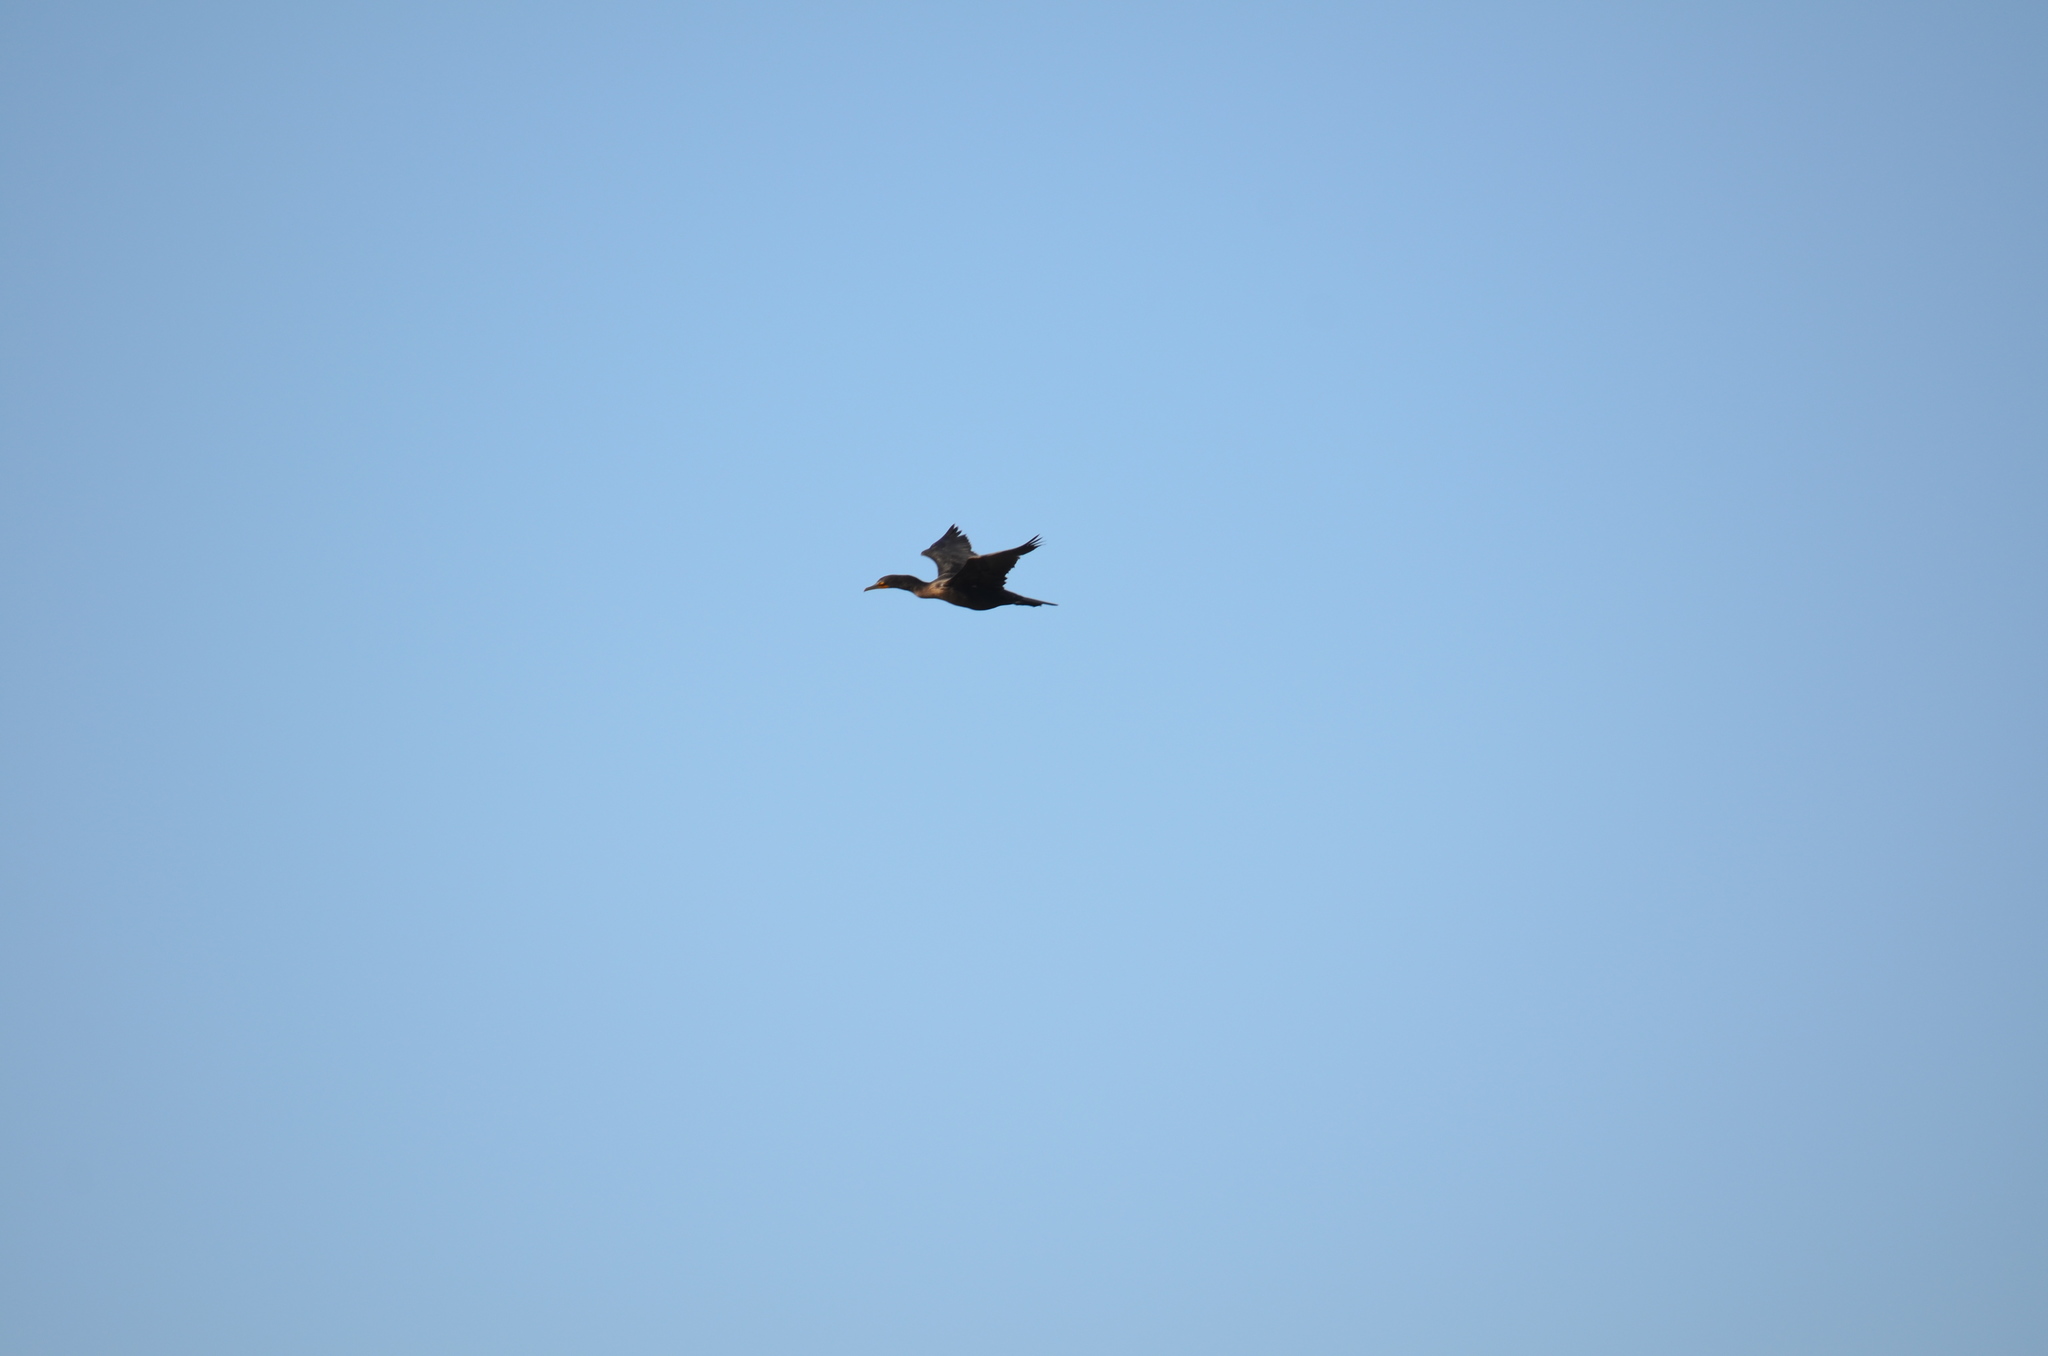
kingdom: Animalia
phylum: Chordata
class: Aves
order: Suliformes
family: Phalacrocoracidae
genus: Phalacrocorax
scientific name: Phalacrocorax auritus
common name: Double-crested cormorant
